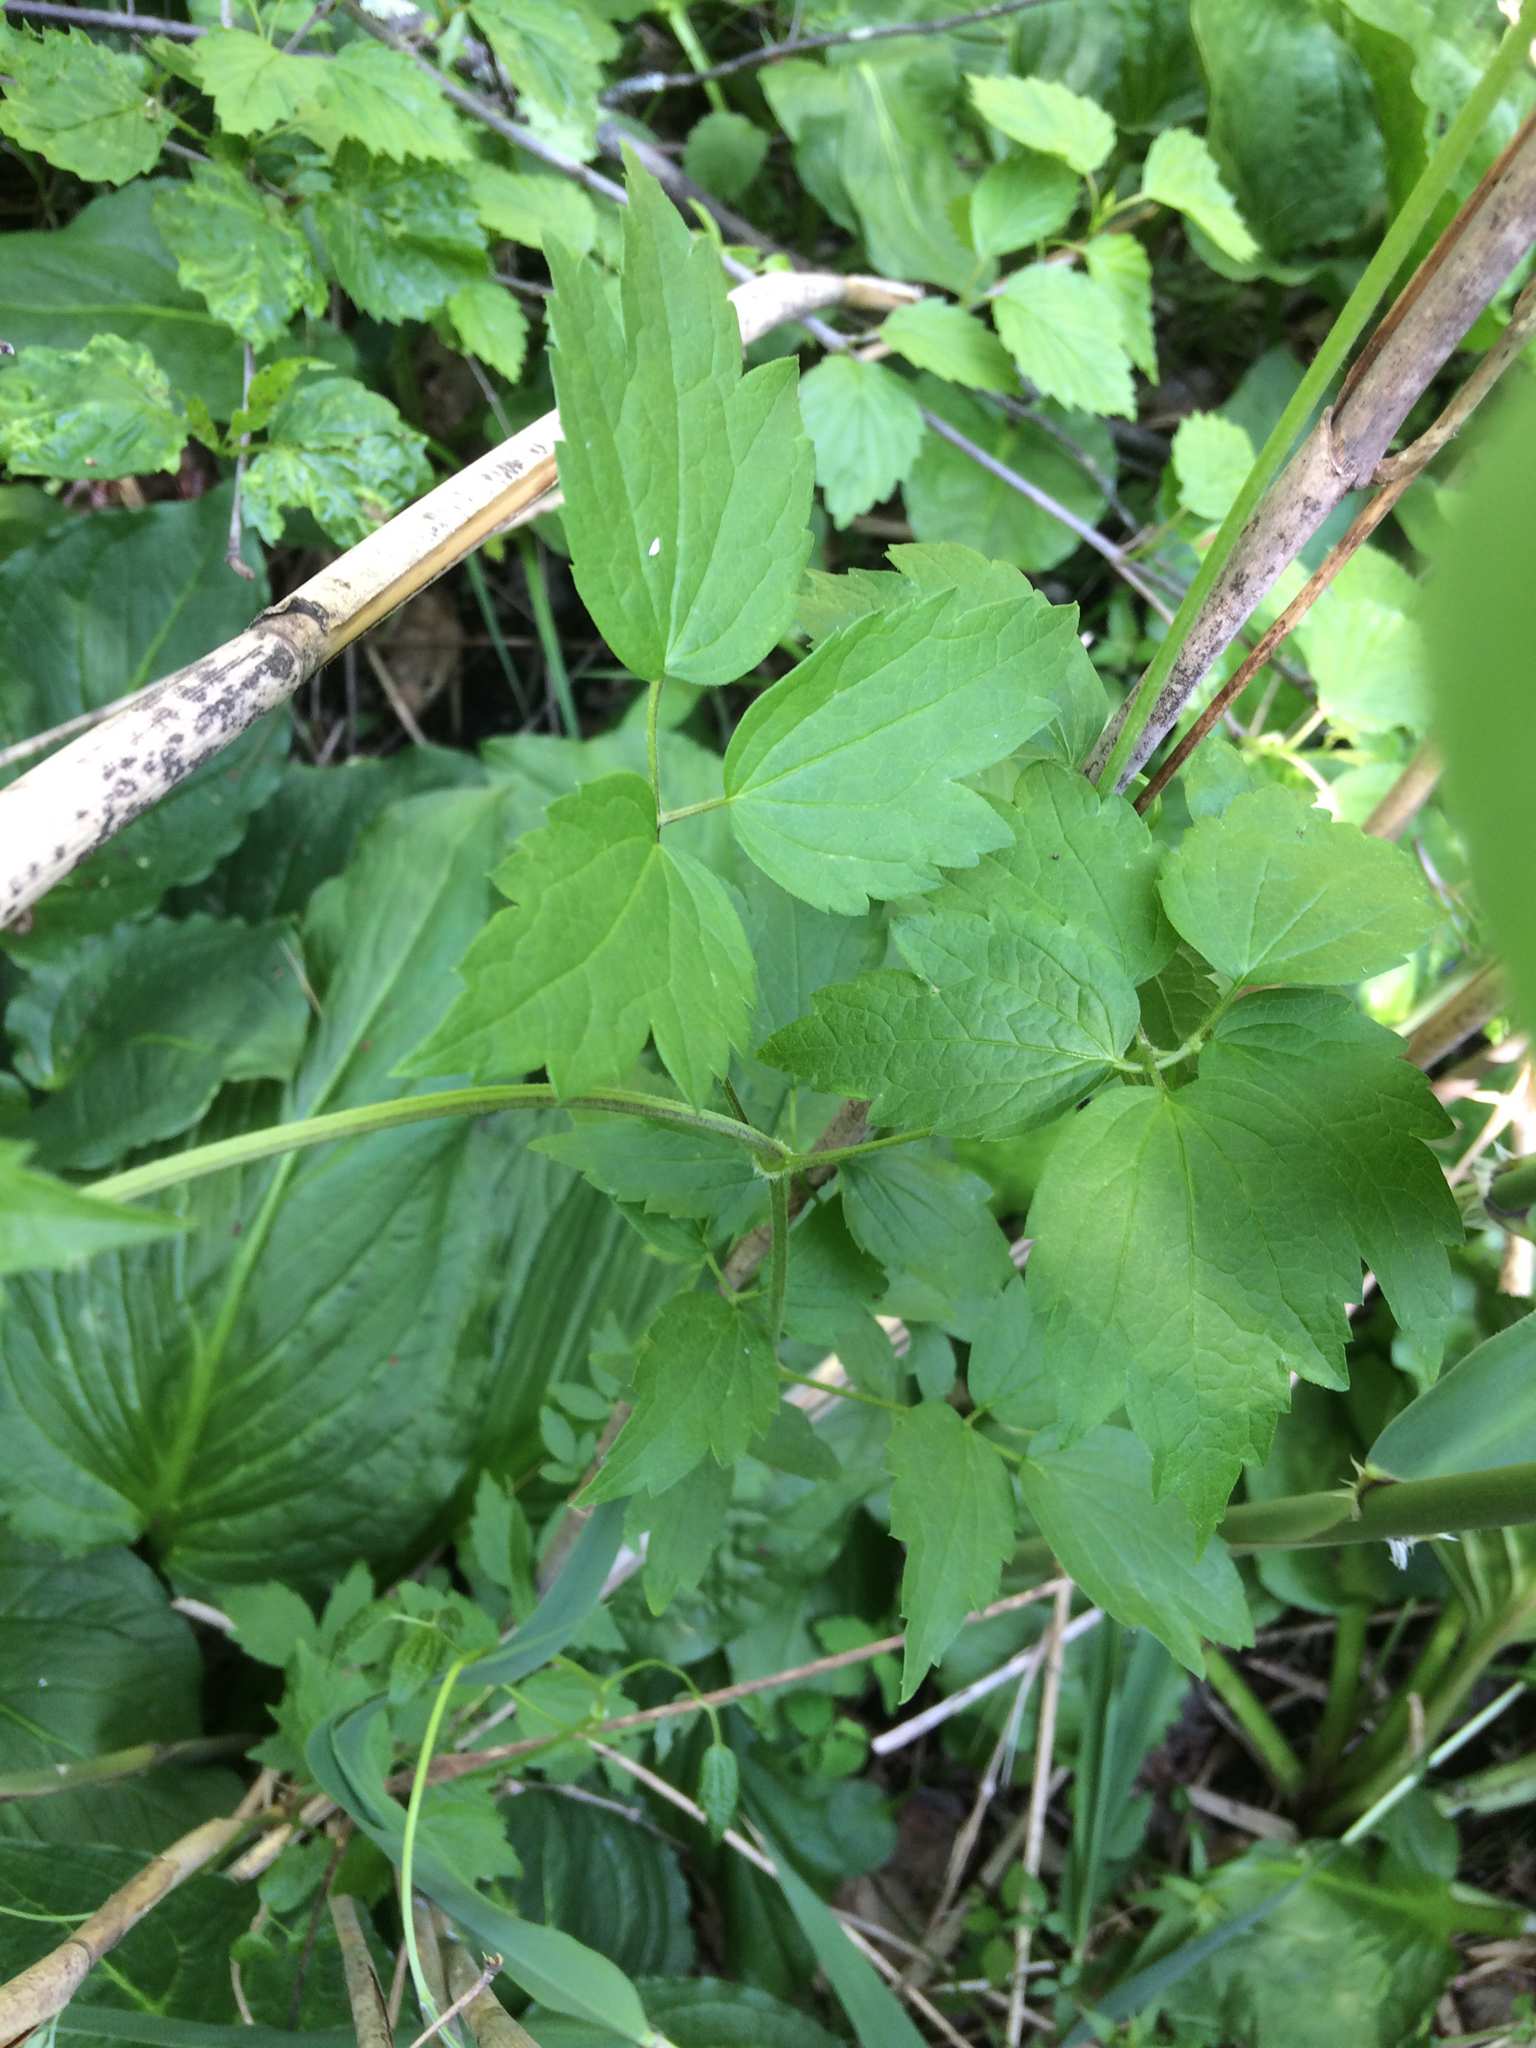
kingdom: Plantae
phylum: Tracheophyta
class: Magnoliopsida
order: Ranunculales
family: Ranunculaceae
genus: Clematis
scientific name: Clematis virginiana
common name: Virgin's-bower
